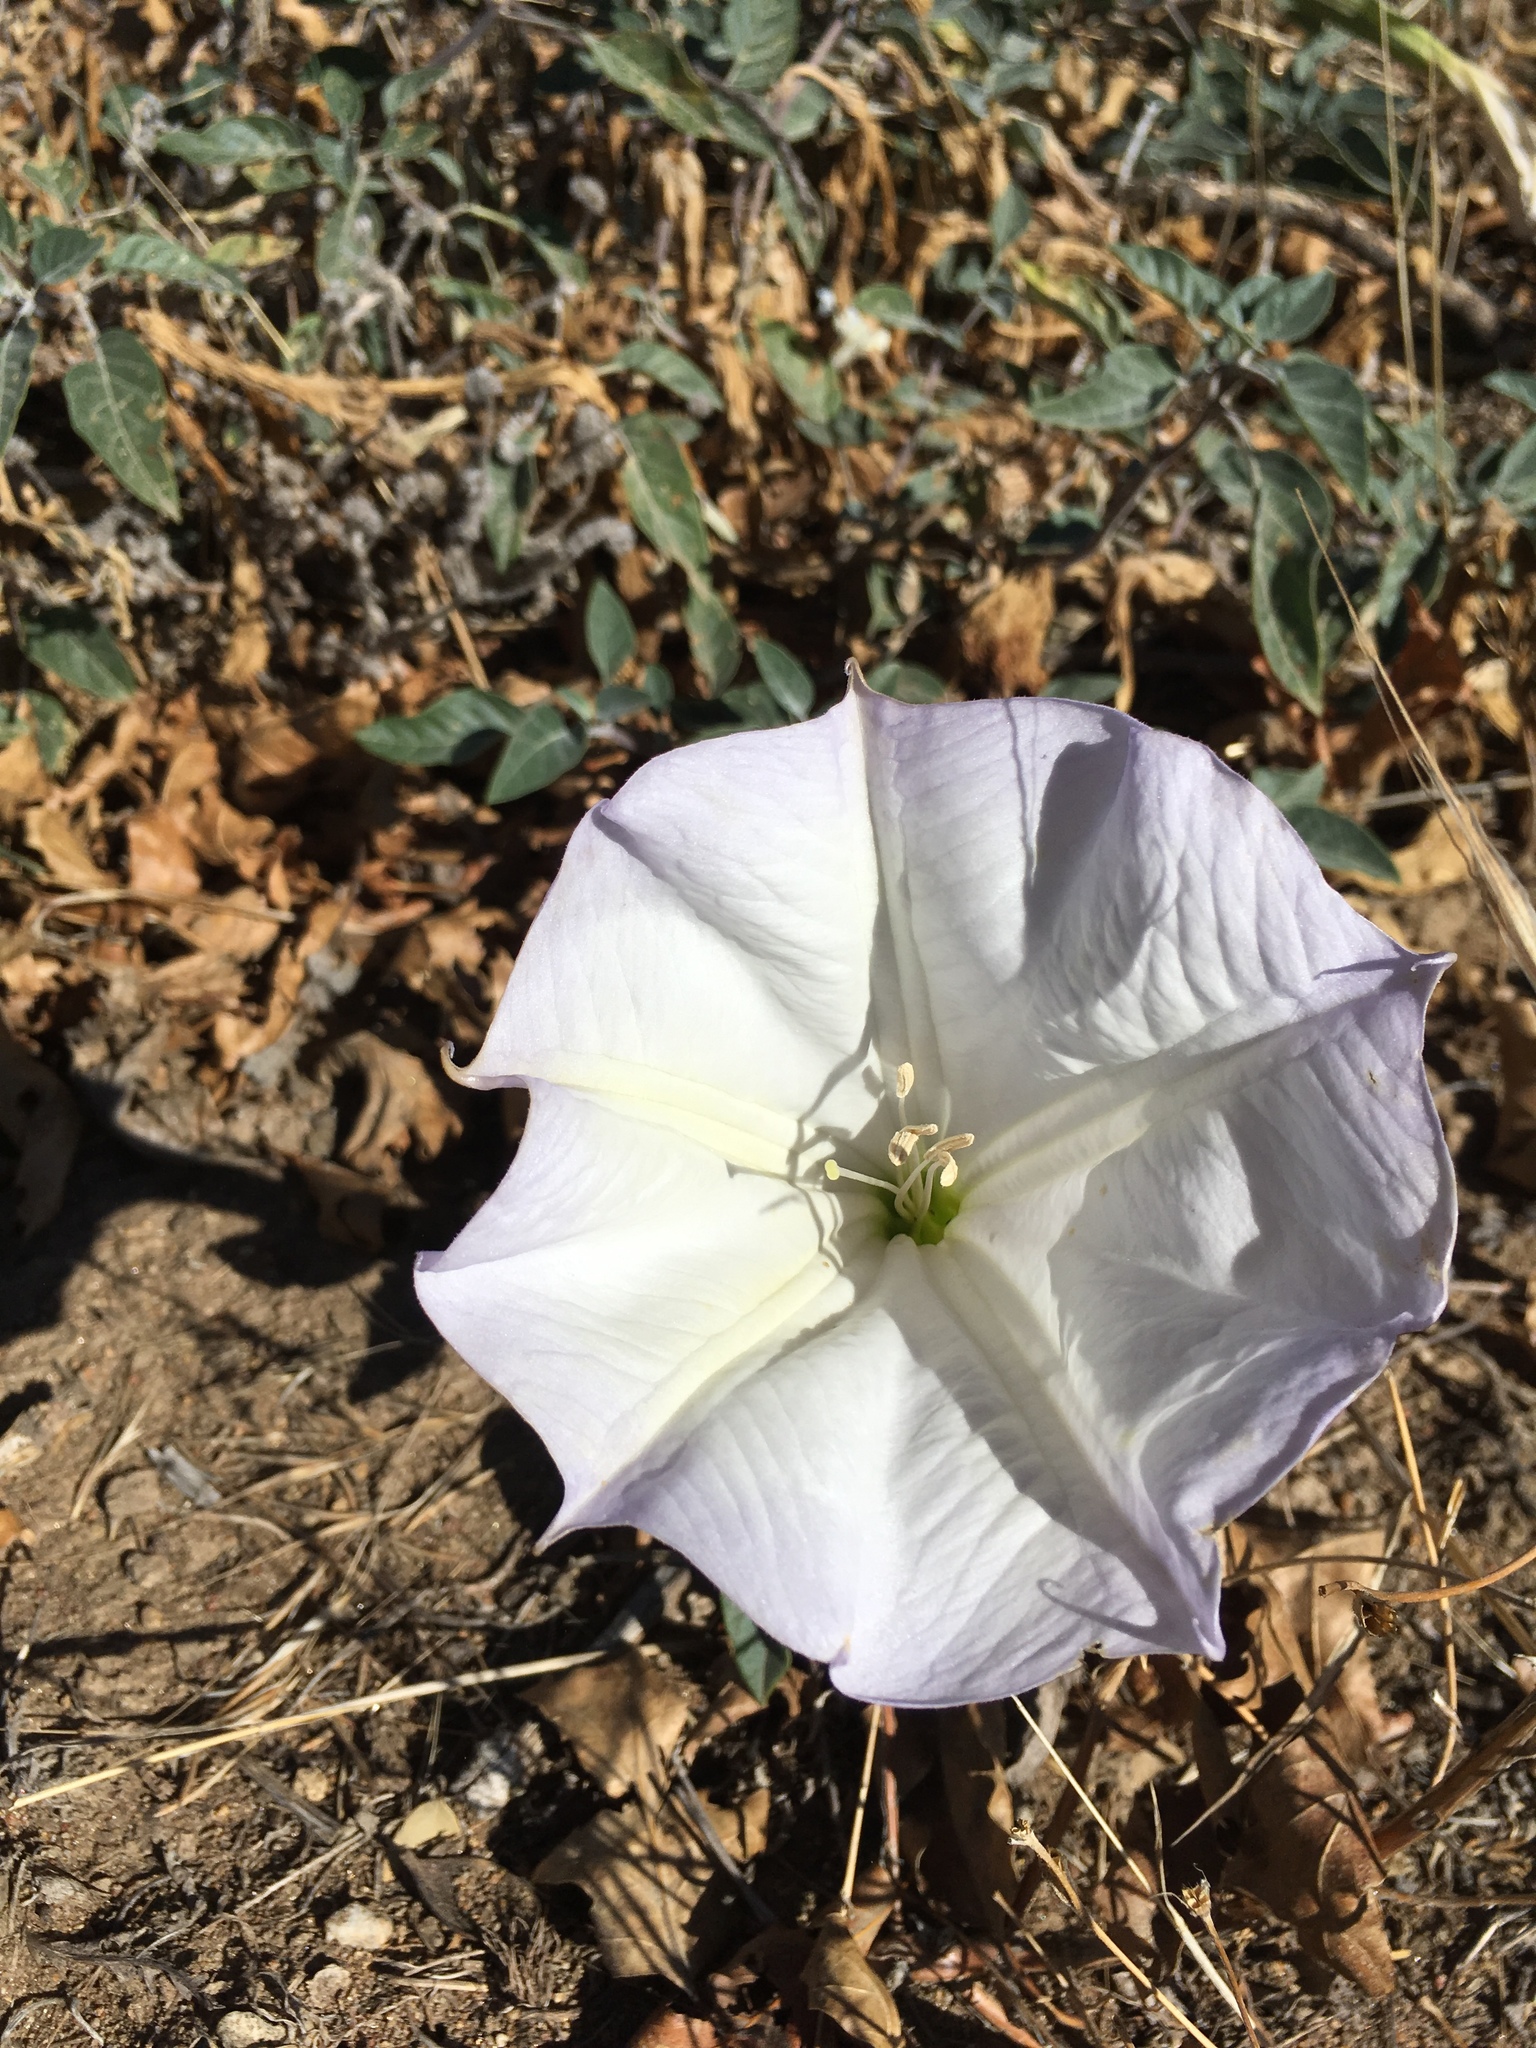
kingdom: Plantae
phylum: Tracheophyta
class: Magnoliopsida
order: Solanales
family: Solanaceae
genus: Datura
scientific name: Datura wrightii
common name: Sacred thorn-apple
